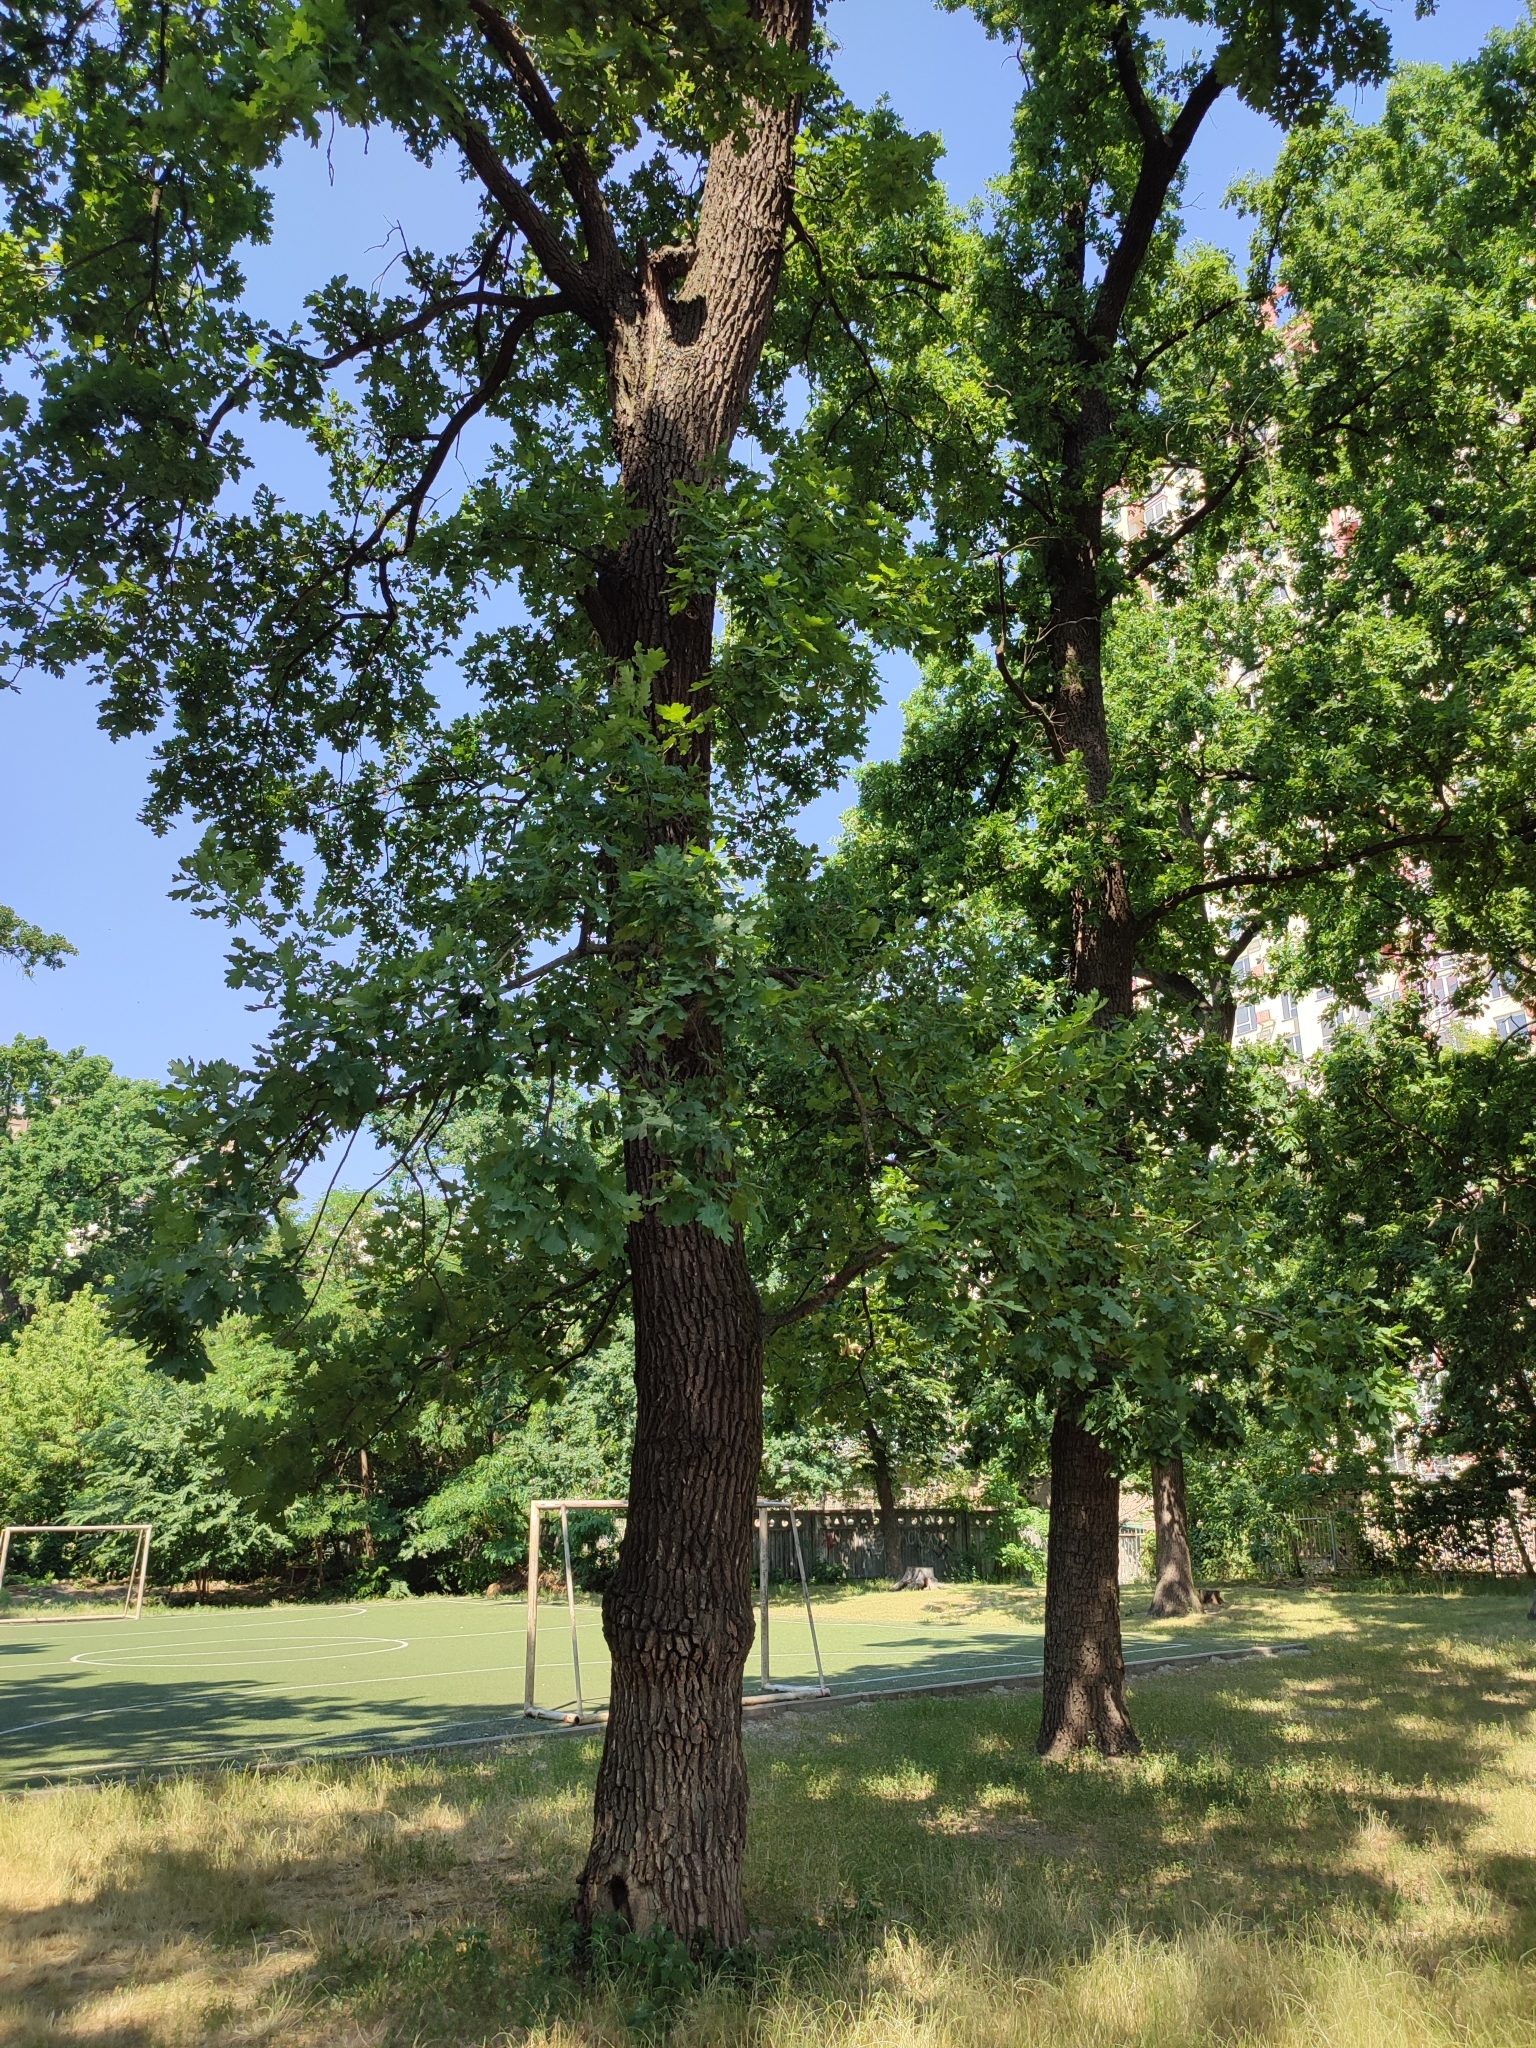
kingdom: Plantae
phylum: Tracheophyta
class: Magnoliopsida
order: Fagales
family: Fagaceae
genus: Quercus
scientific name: Quercus robur
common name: Pedunculate oak
